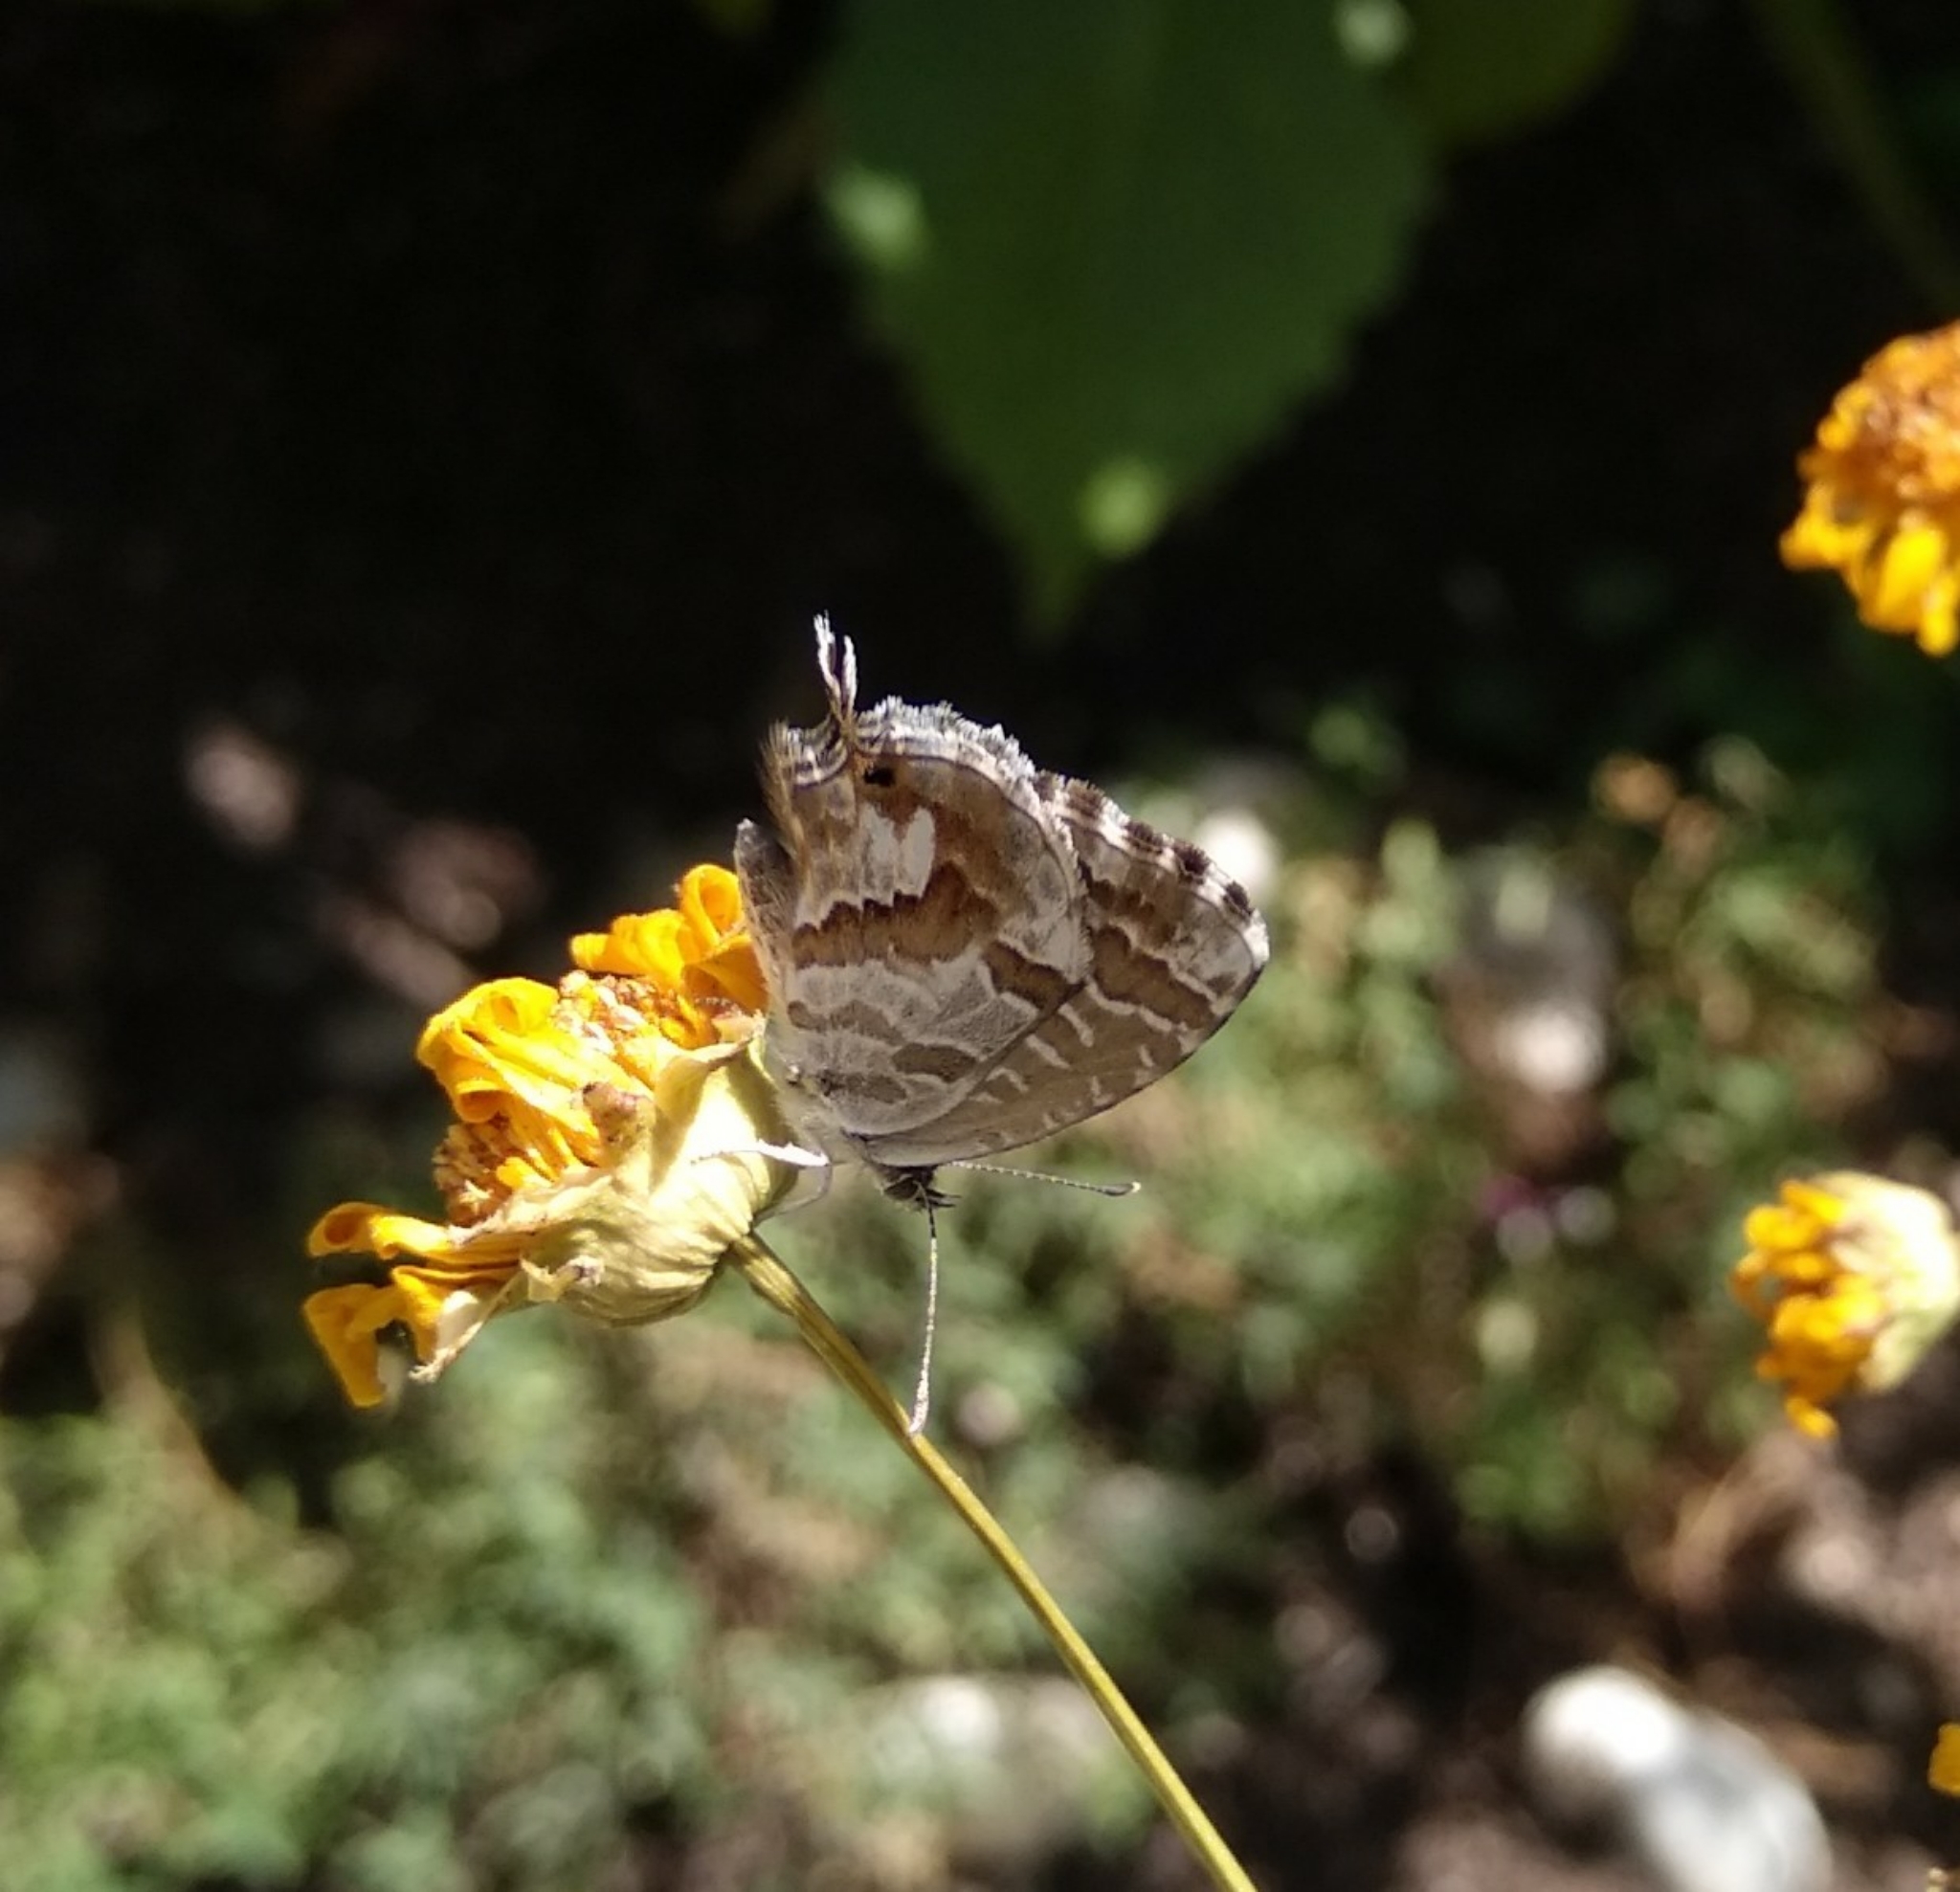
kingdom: Animalia
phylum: Arthropoda
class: Insecta
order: Lepidoptera
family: Lycaenidae
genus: Cacyreus
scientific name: Cacyreus marshalli
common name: Geranium bronze
